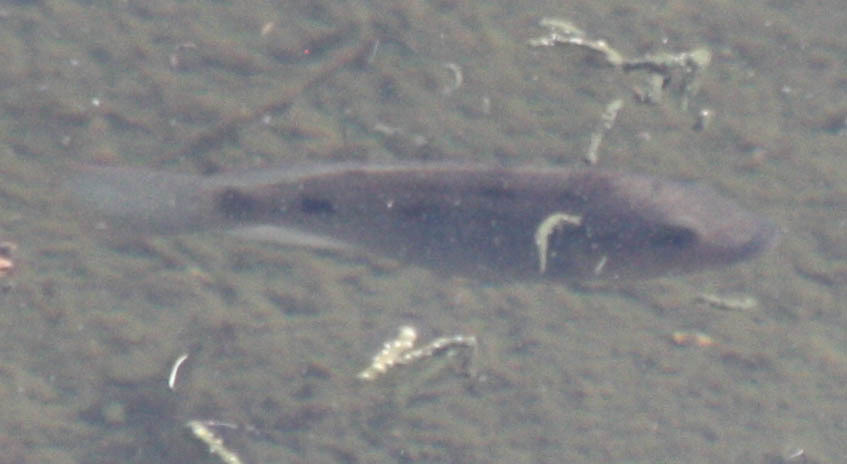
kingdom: Animalia
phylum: Chordata
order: Perciformes
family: Cichlidae
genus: Sarotherodon
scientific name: Sarotherodon melanotheron
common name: Blackchin tilapia
